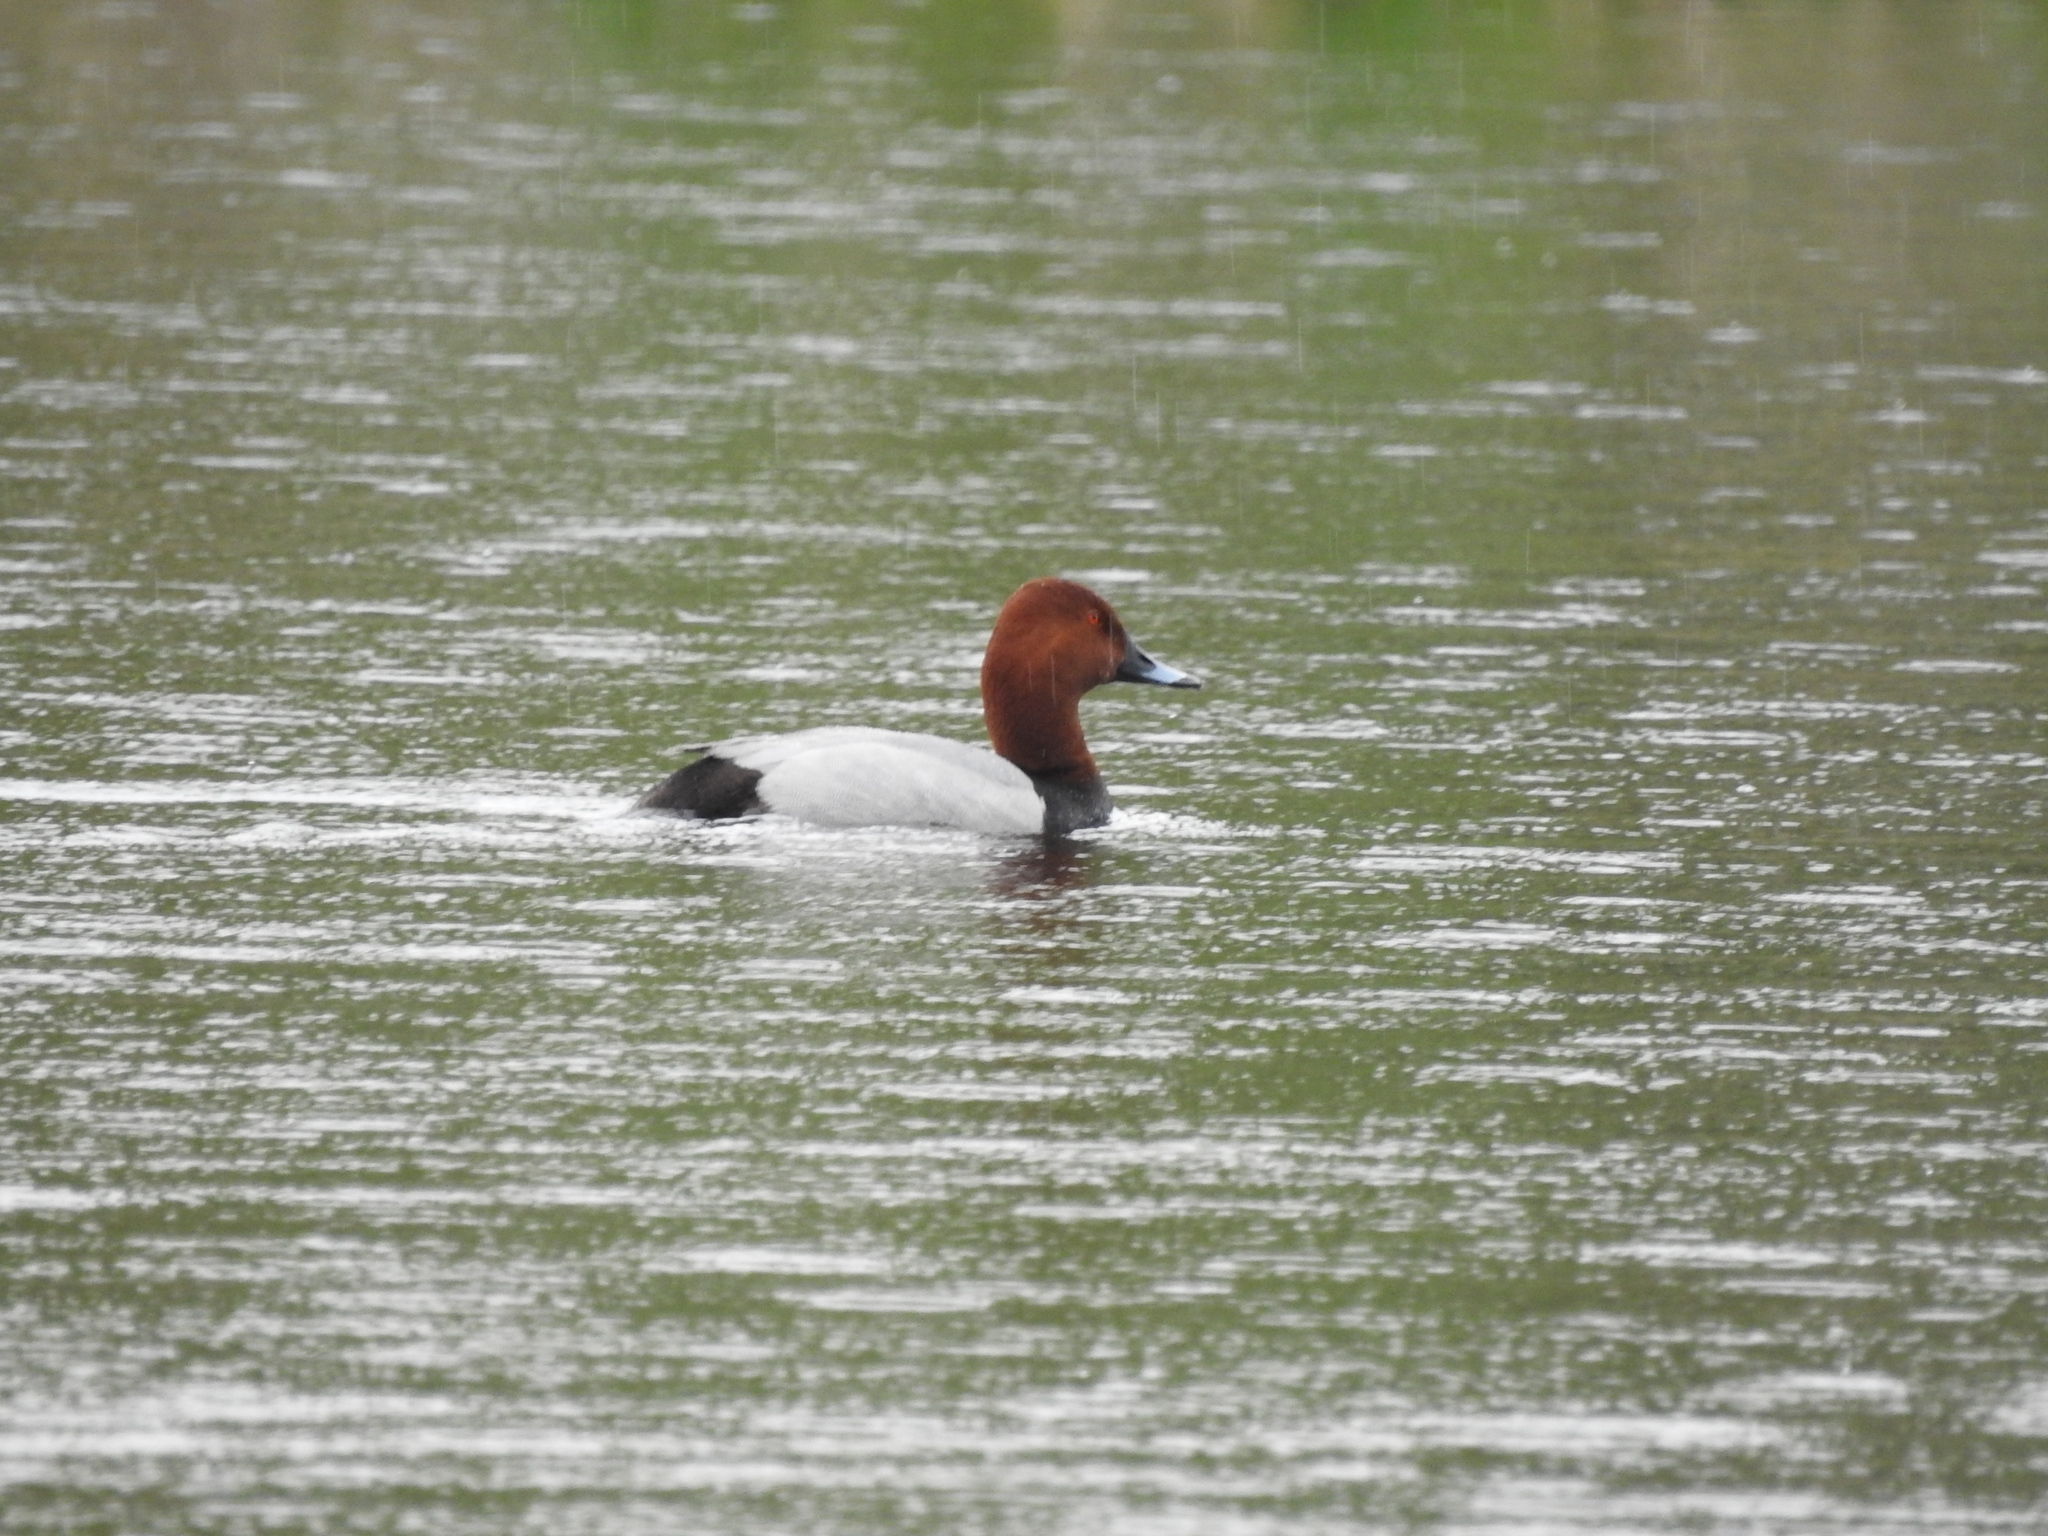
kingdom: Animalia
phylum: Chordata
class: Aves
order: Anseriformes
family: Anatidae
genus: Aythya
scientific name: Aythya ferina
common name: Common pochard
